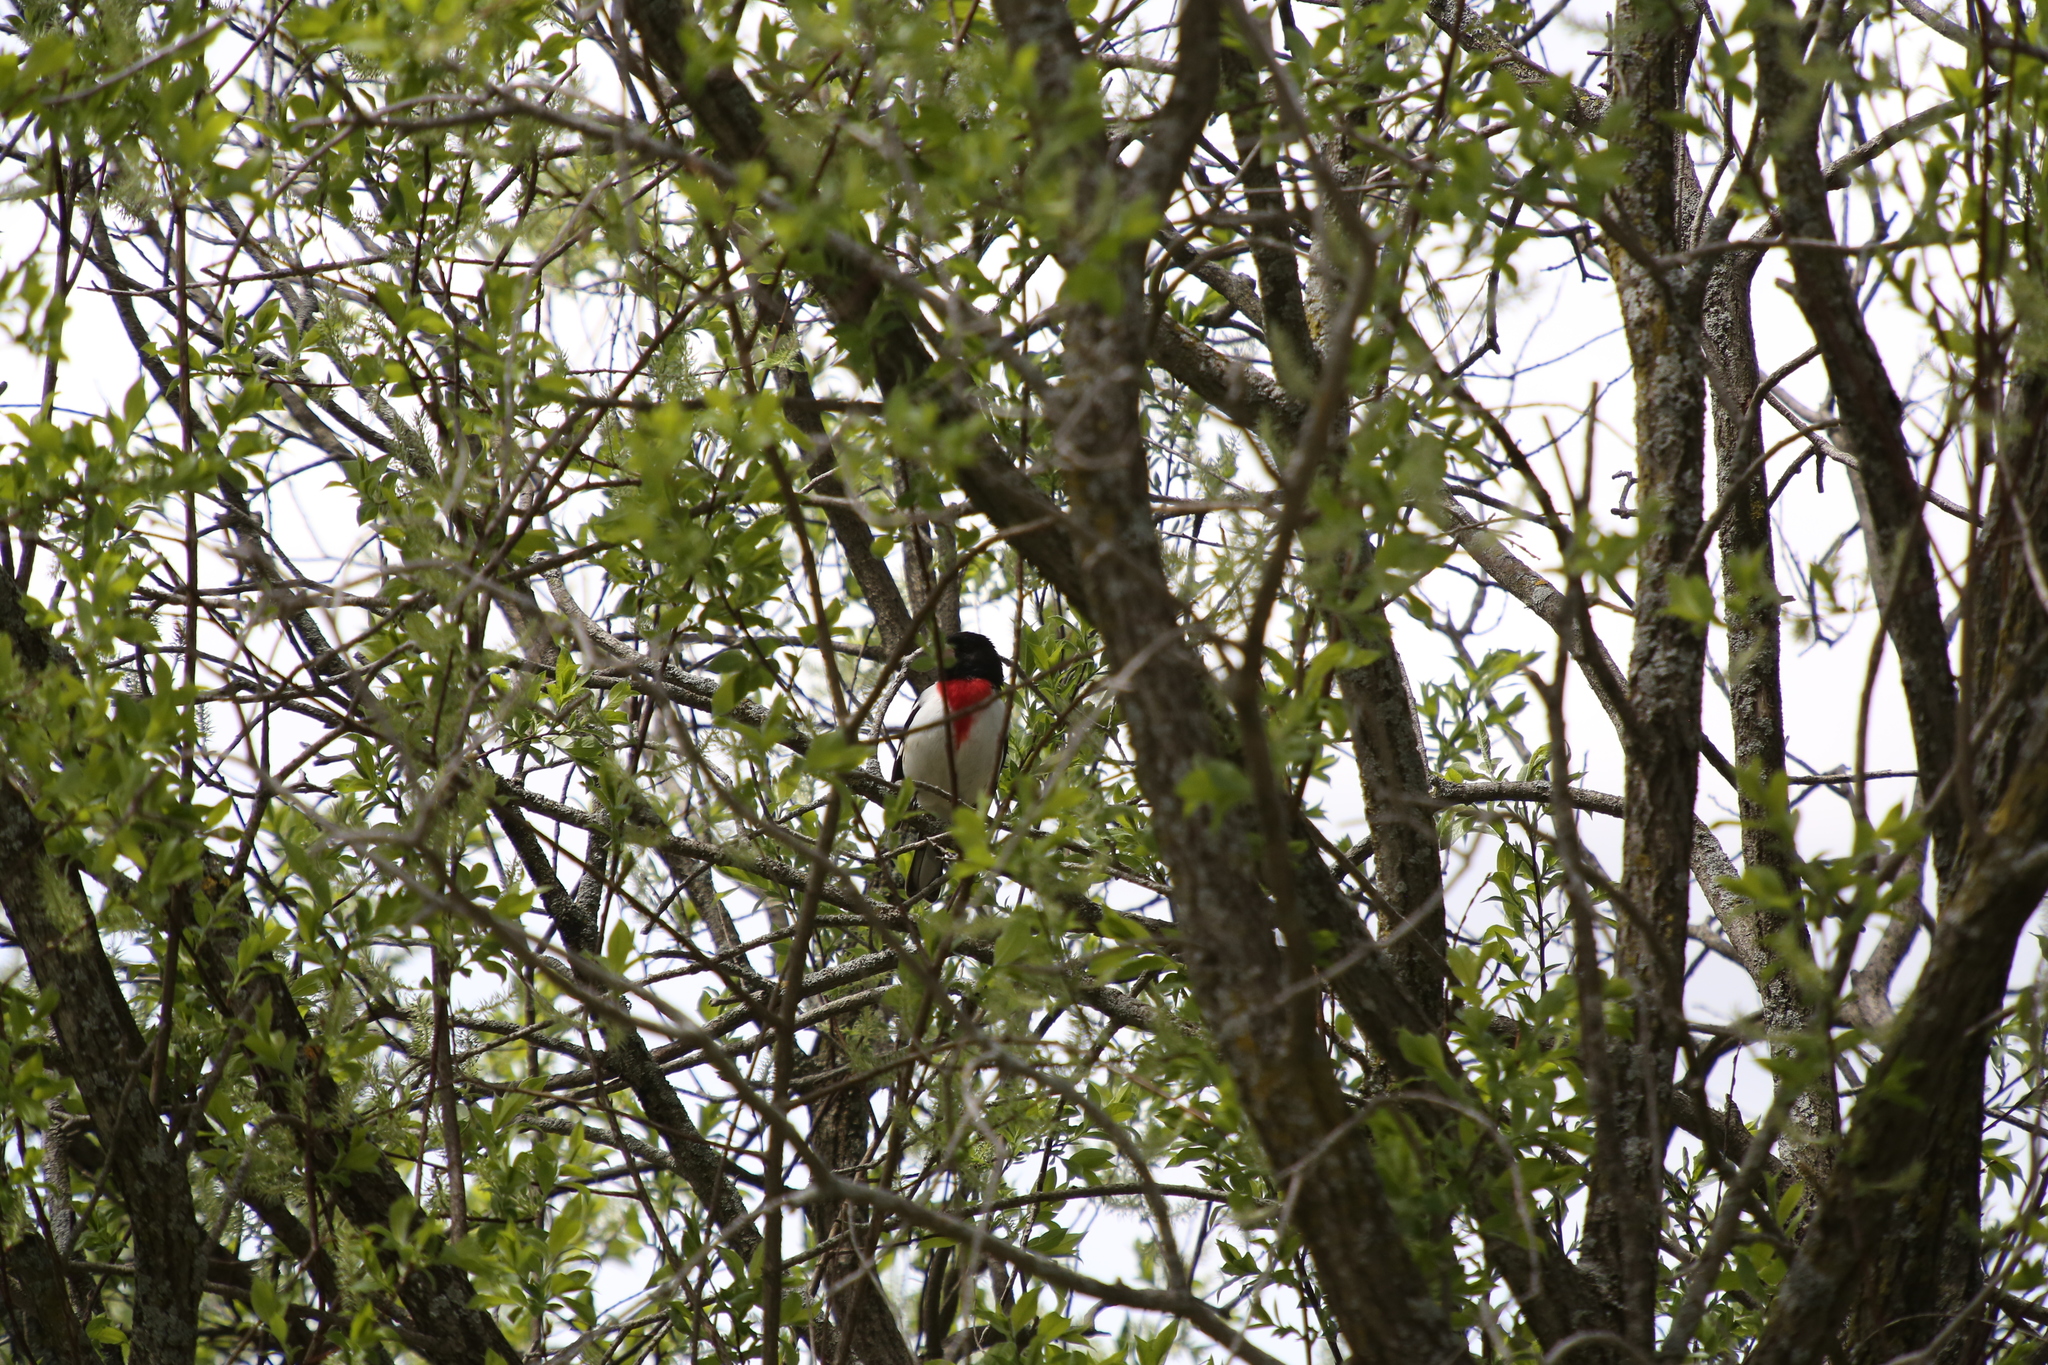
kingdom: Animalia
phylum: Chordata
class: Aves
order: Passeriformes
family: Cardinalidae
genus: Pheucticus
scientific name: Pheucticus ludovicianus
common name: Rose-breasted grosbeak
